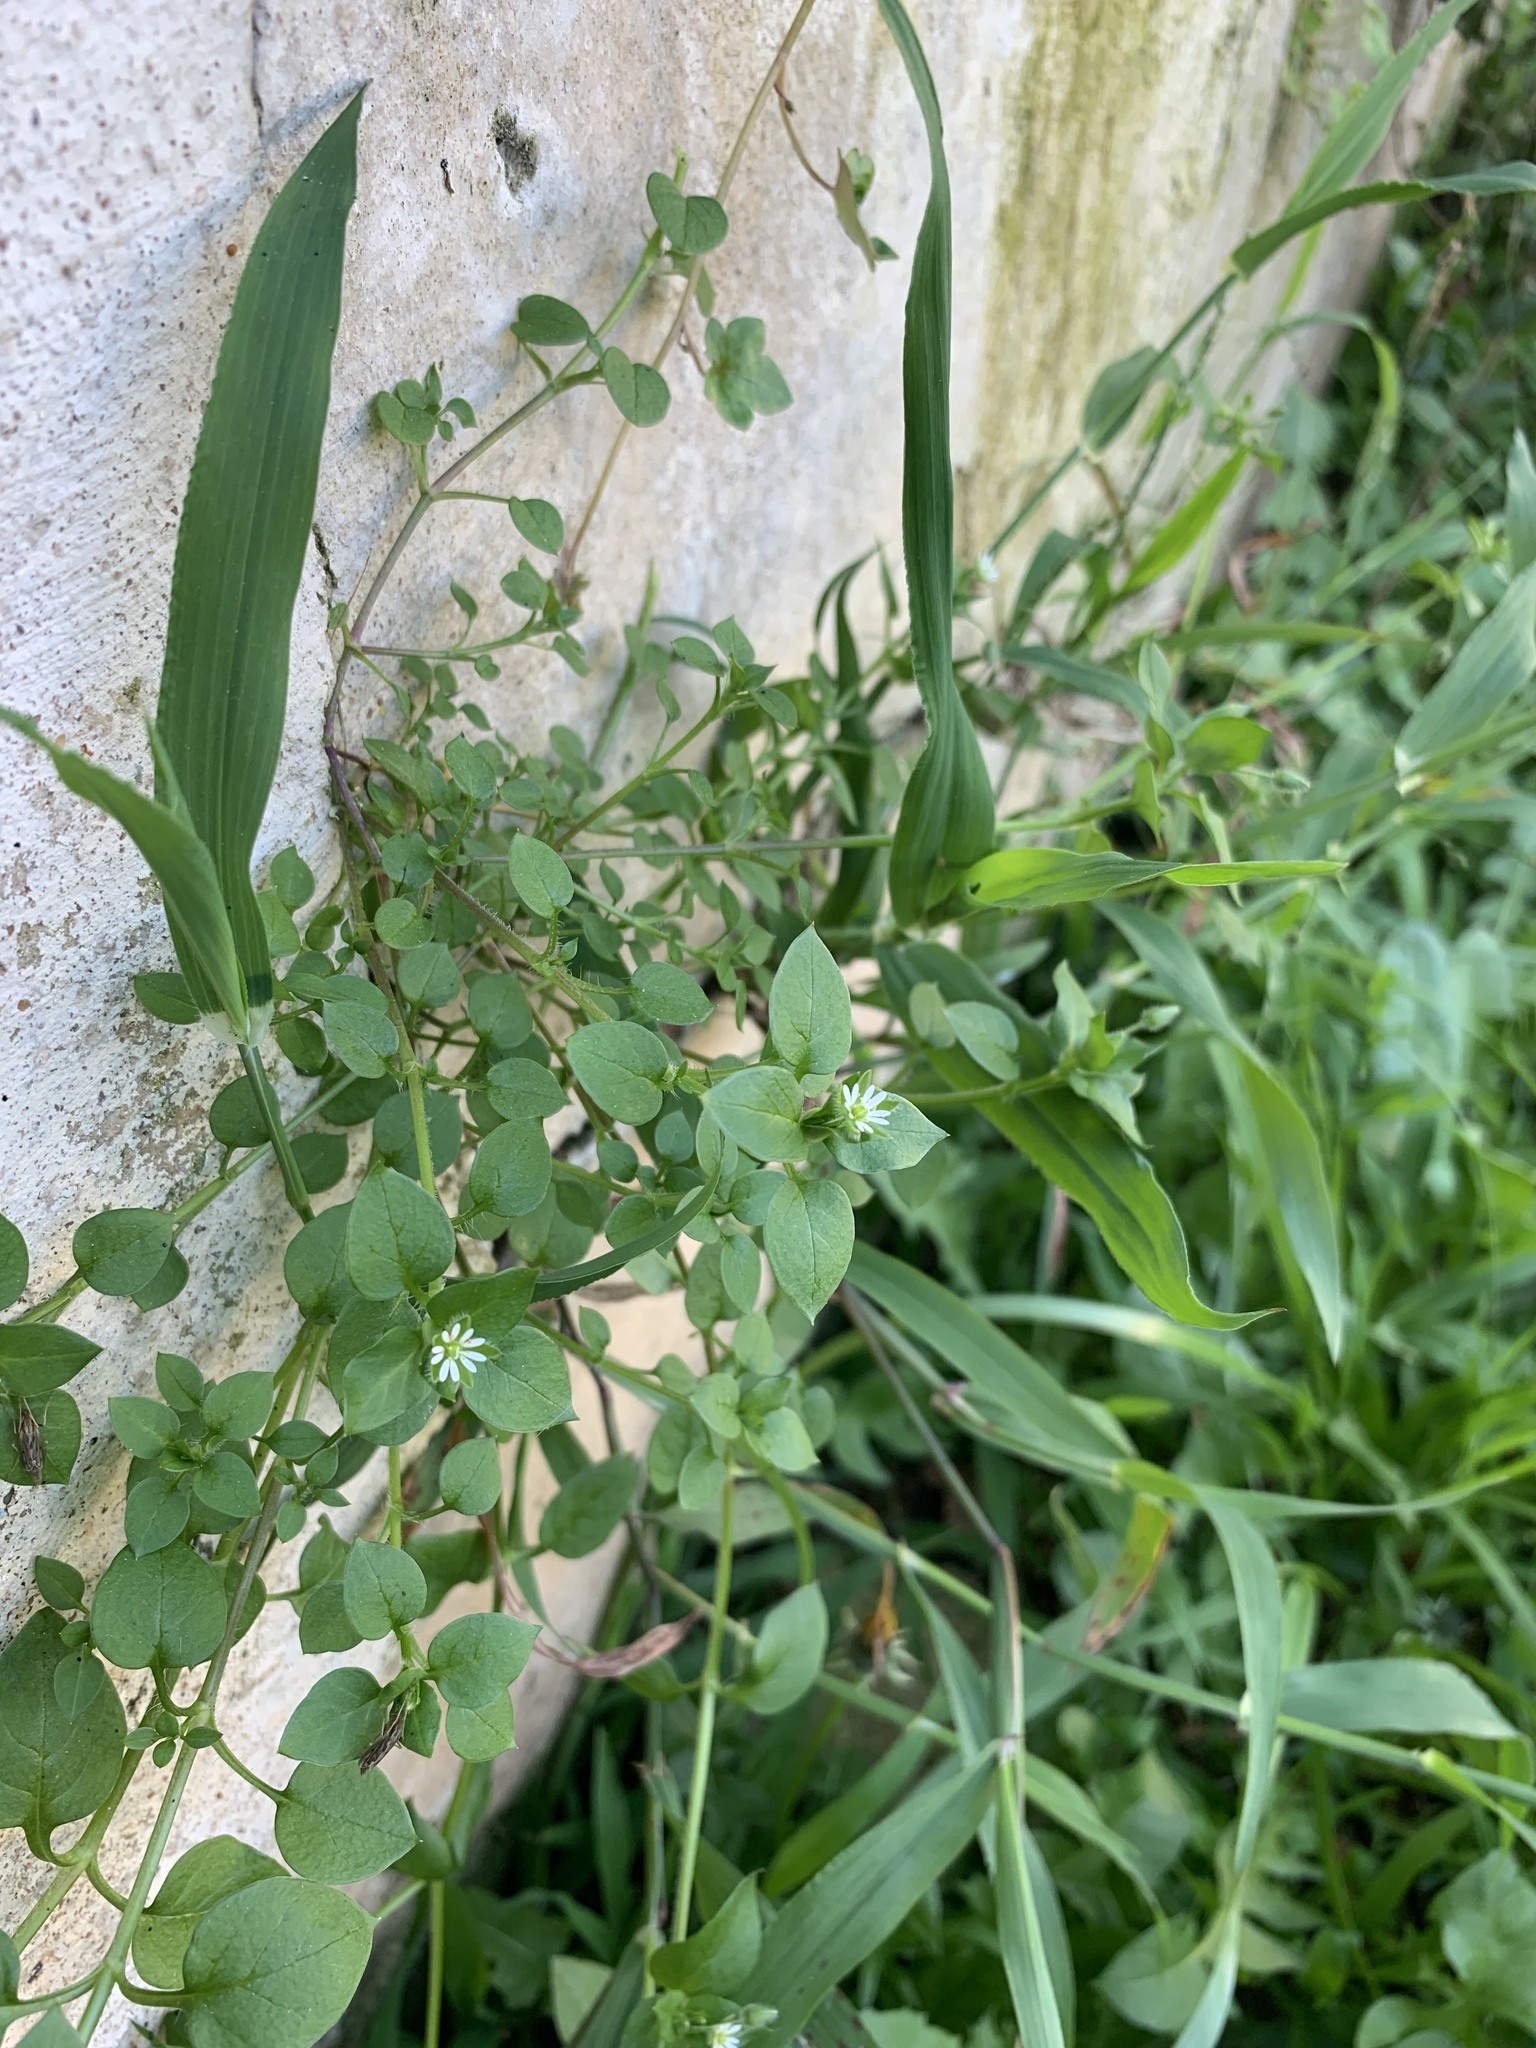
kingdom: Plantae
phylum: Tracheophyta
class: Magnoliopsida
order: Caryophyllales
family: Caryophyllaceae
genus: Stellaria
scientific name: Stellaria media
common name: Common chickweed
